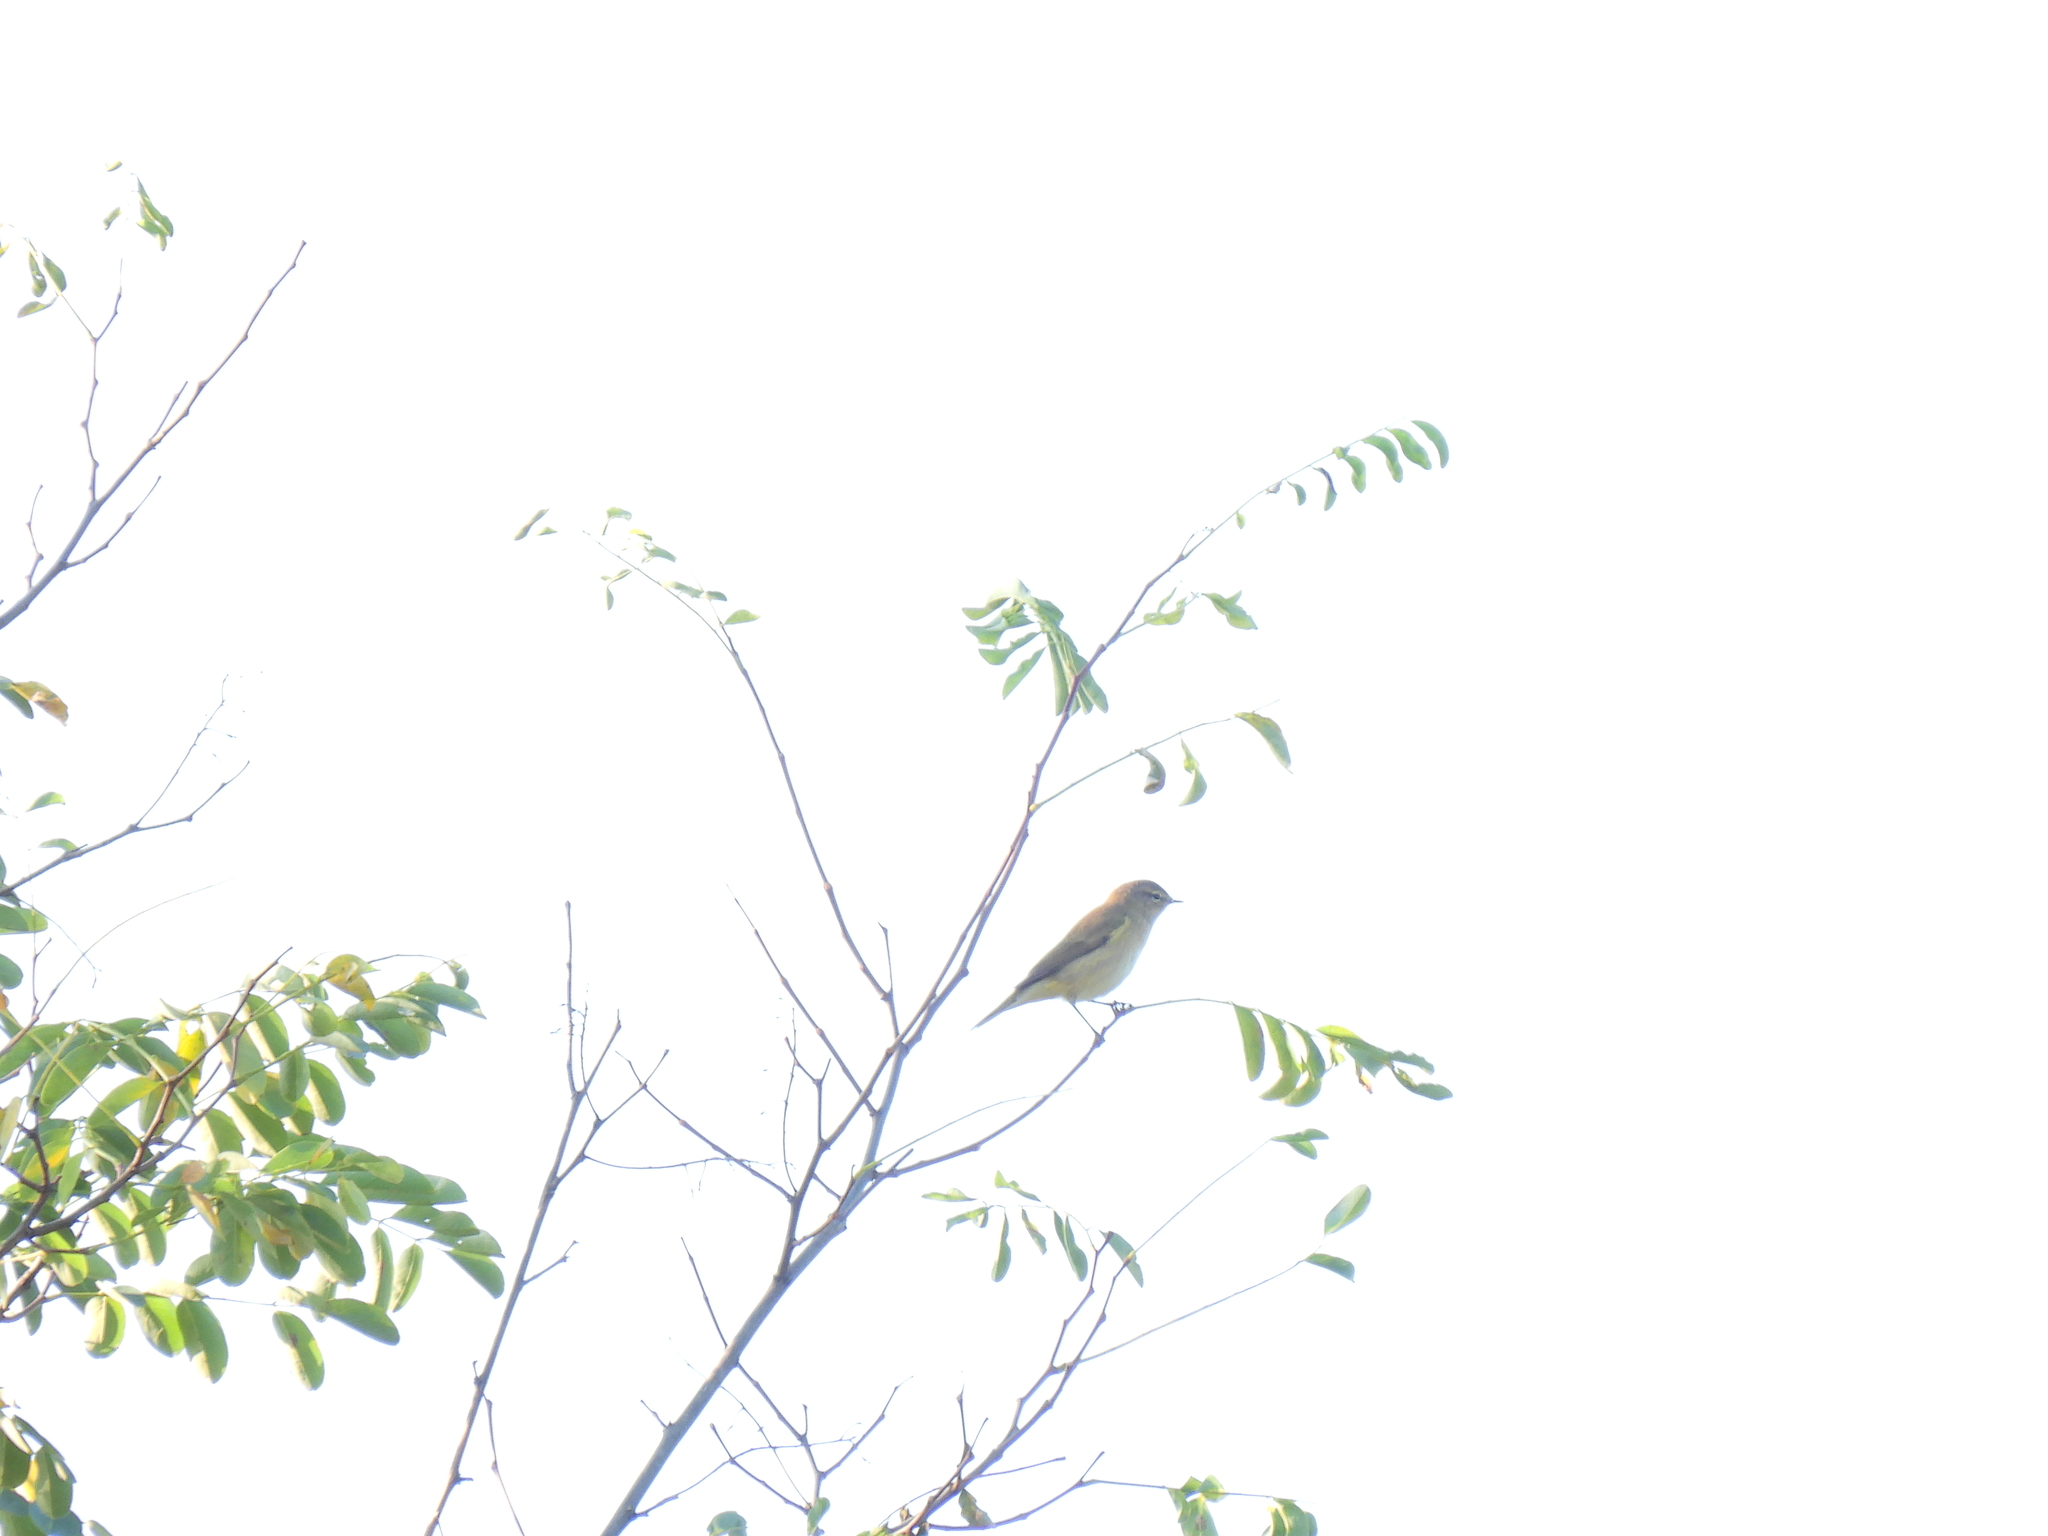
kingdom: Animalia
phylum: Chordata
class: Aves
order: Passeriformes
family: Phylloscopidae
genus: Phylloscopus
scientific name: Phylloscopus collybita
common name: Common chiffchaff
